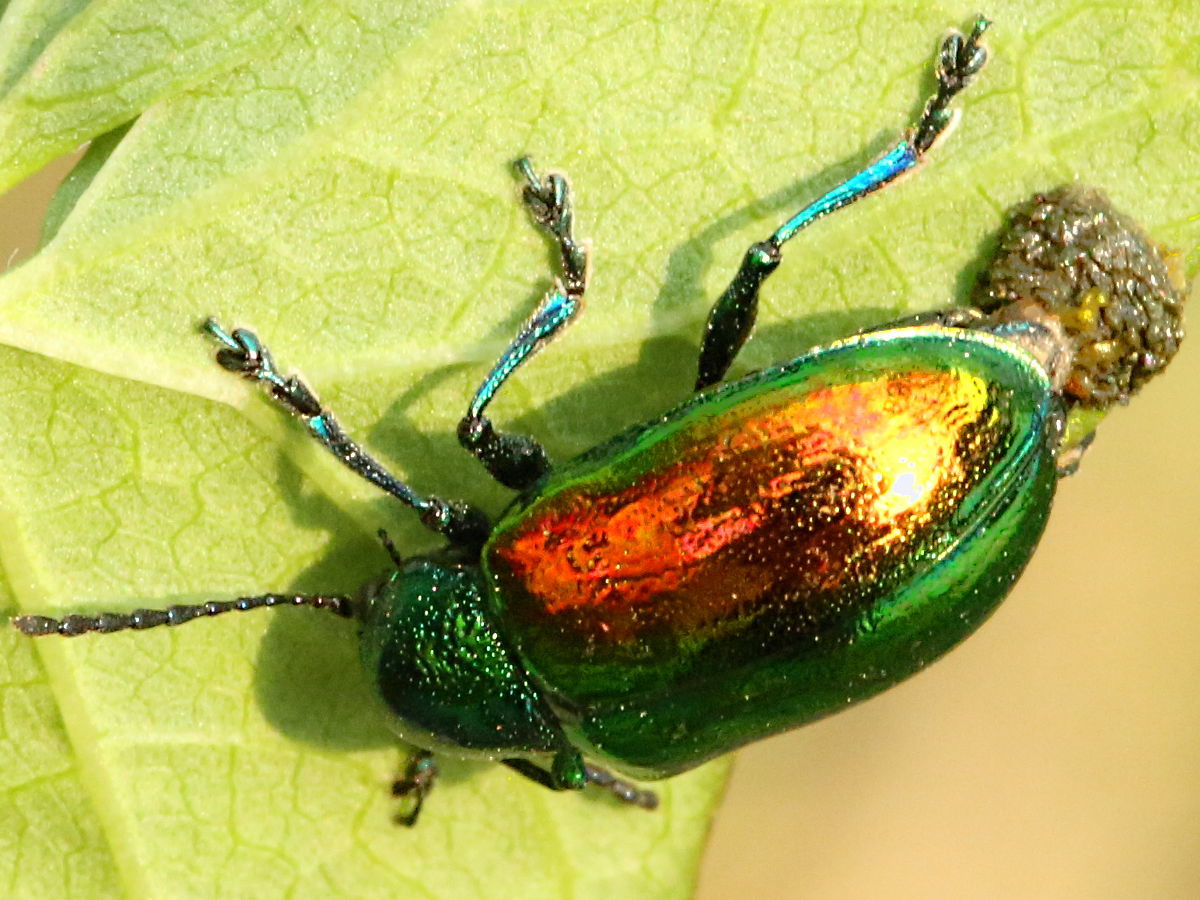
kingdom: Animalia
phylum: Arthropoda
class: Insecta
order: Coleoptera
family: Chrysomelidae
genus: Chrysochus
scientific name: Chrysochus auratus
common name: Dogbane leaf beetle
